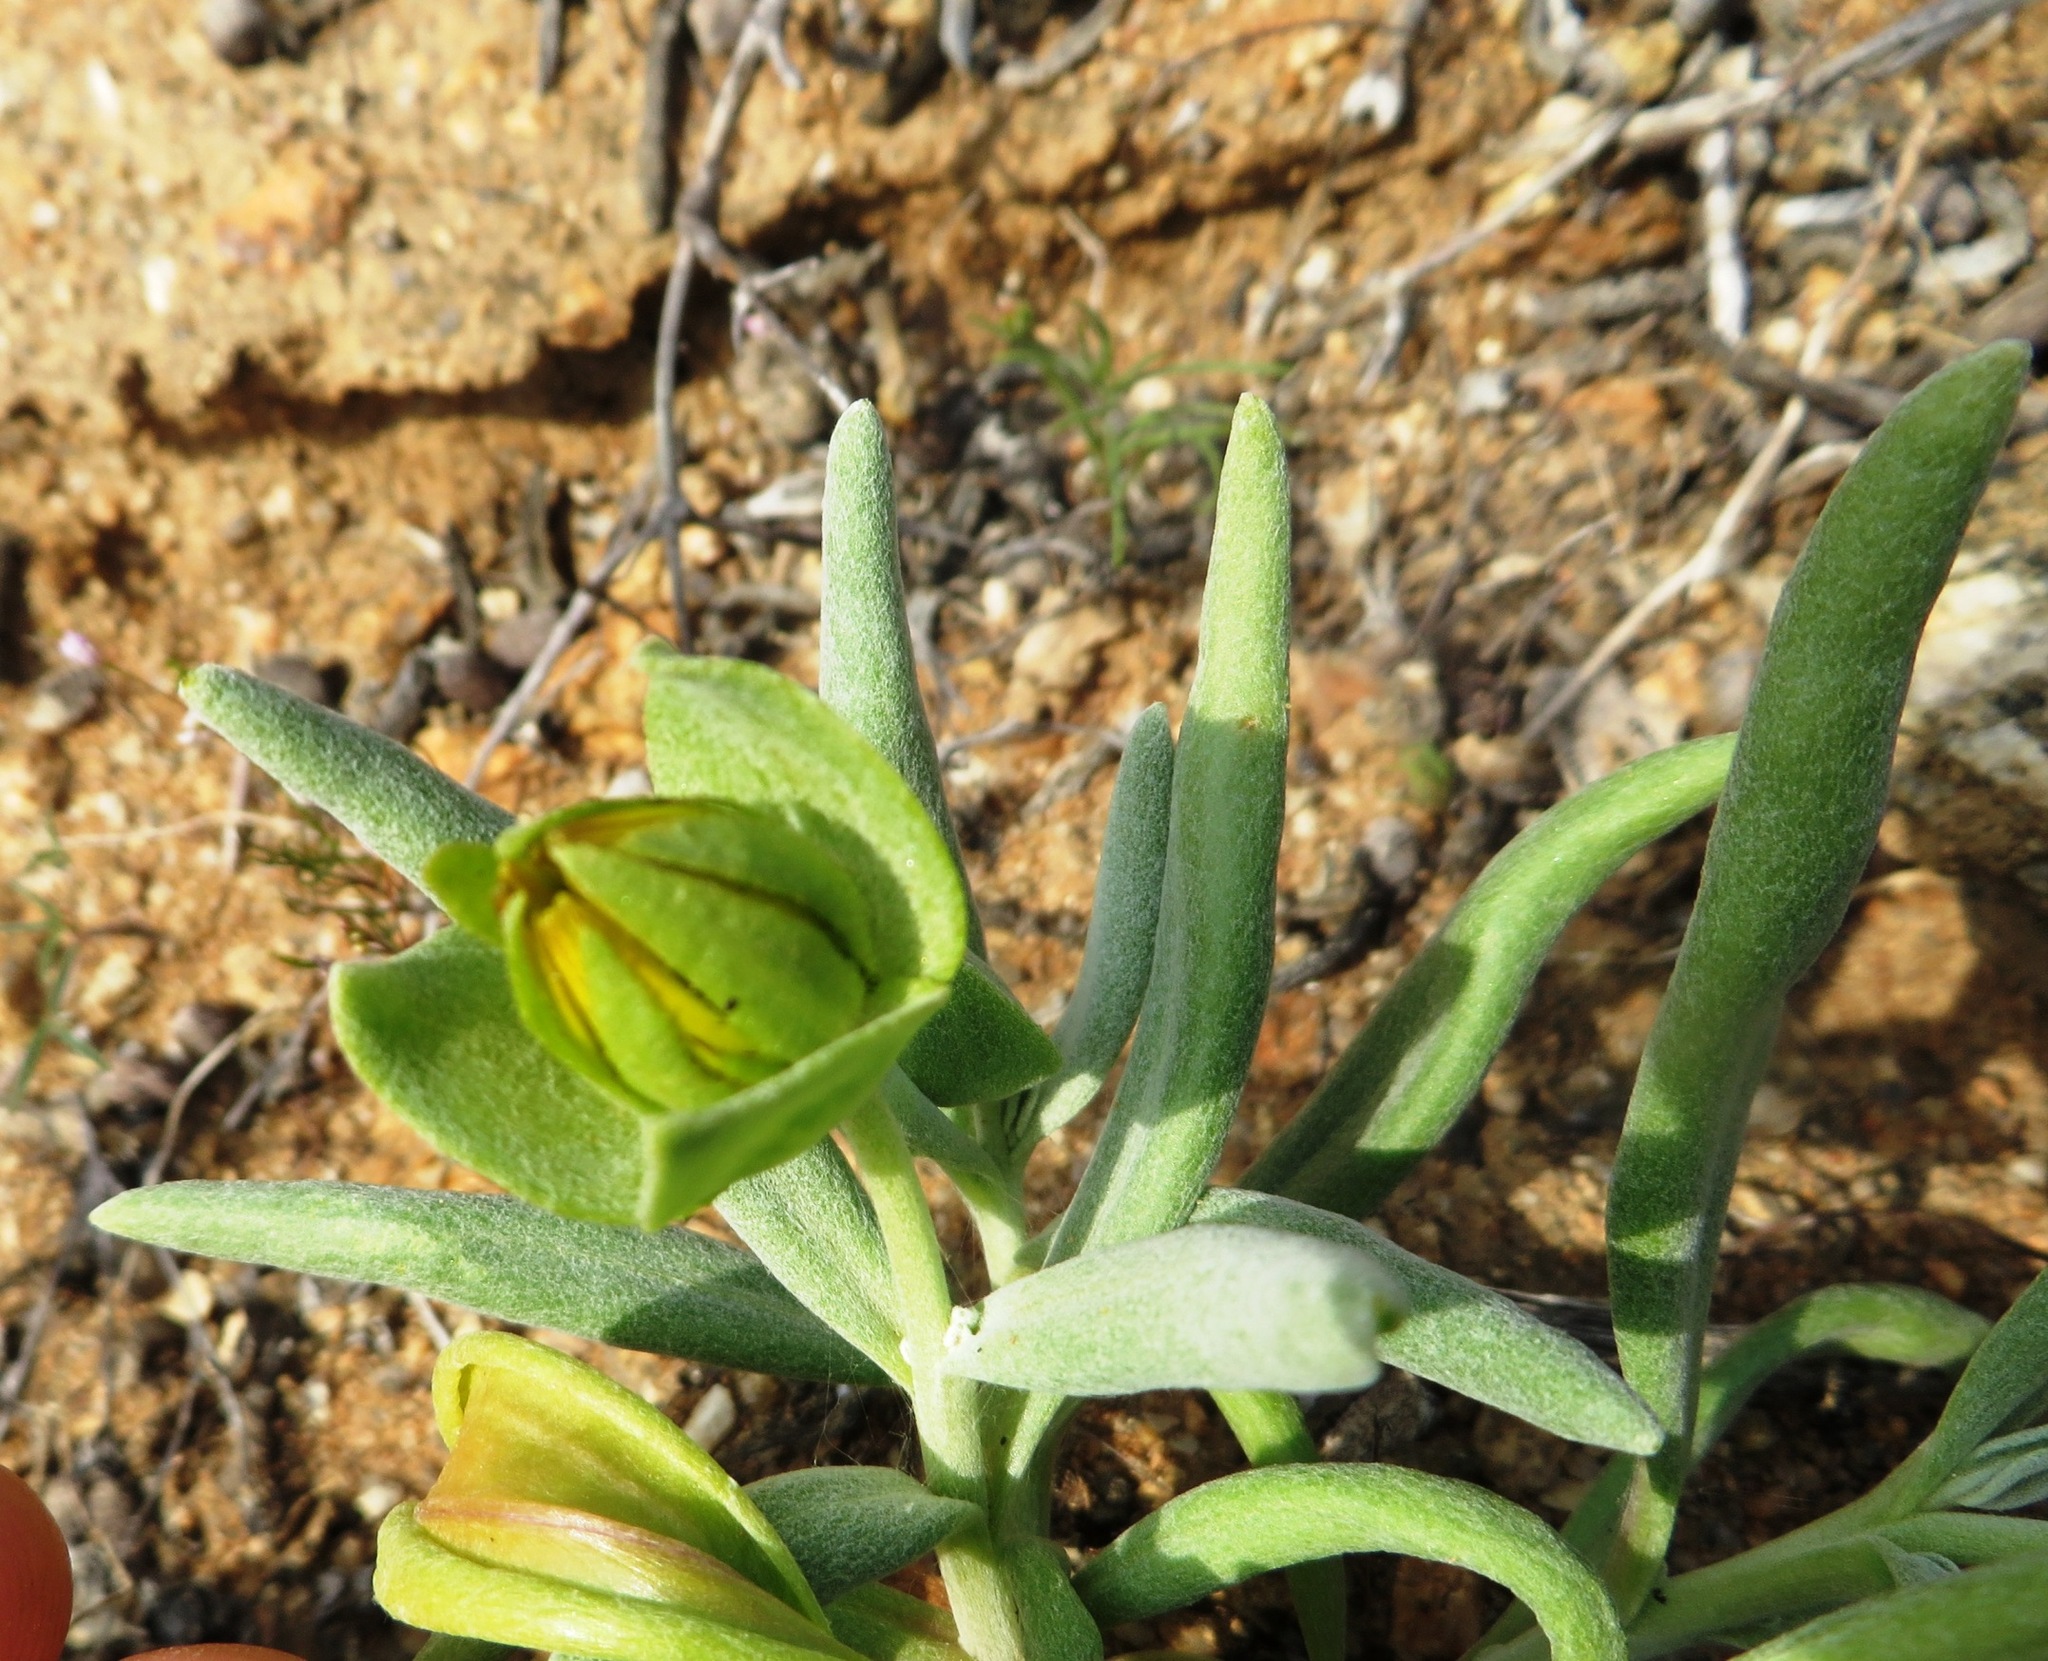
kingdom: Plantae
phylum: Tracheophyta
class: Magnoliopsida
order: Asterales
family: Asteraceae
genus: Didelta
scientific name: Didelta carnosa
